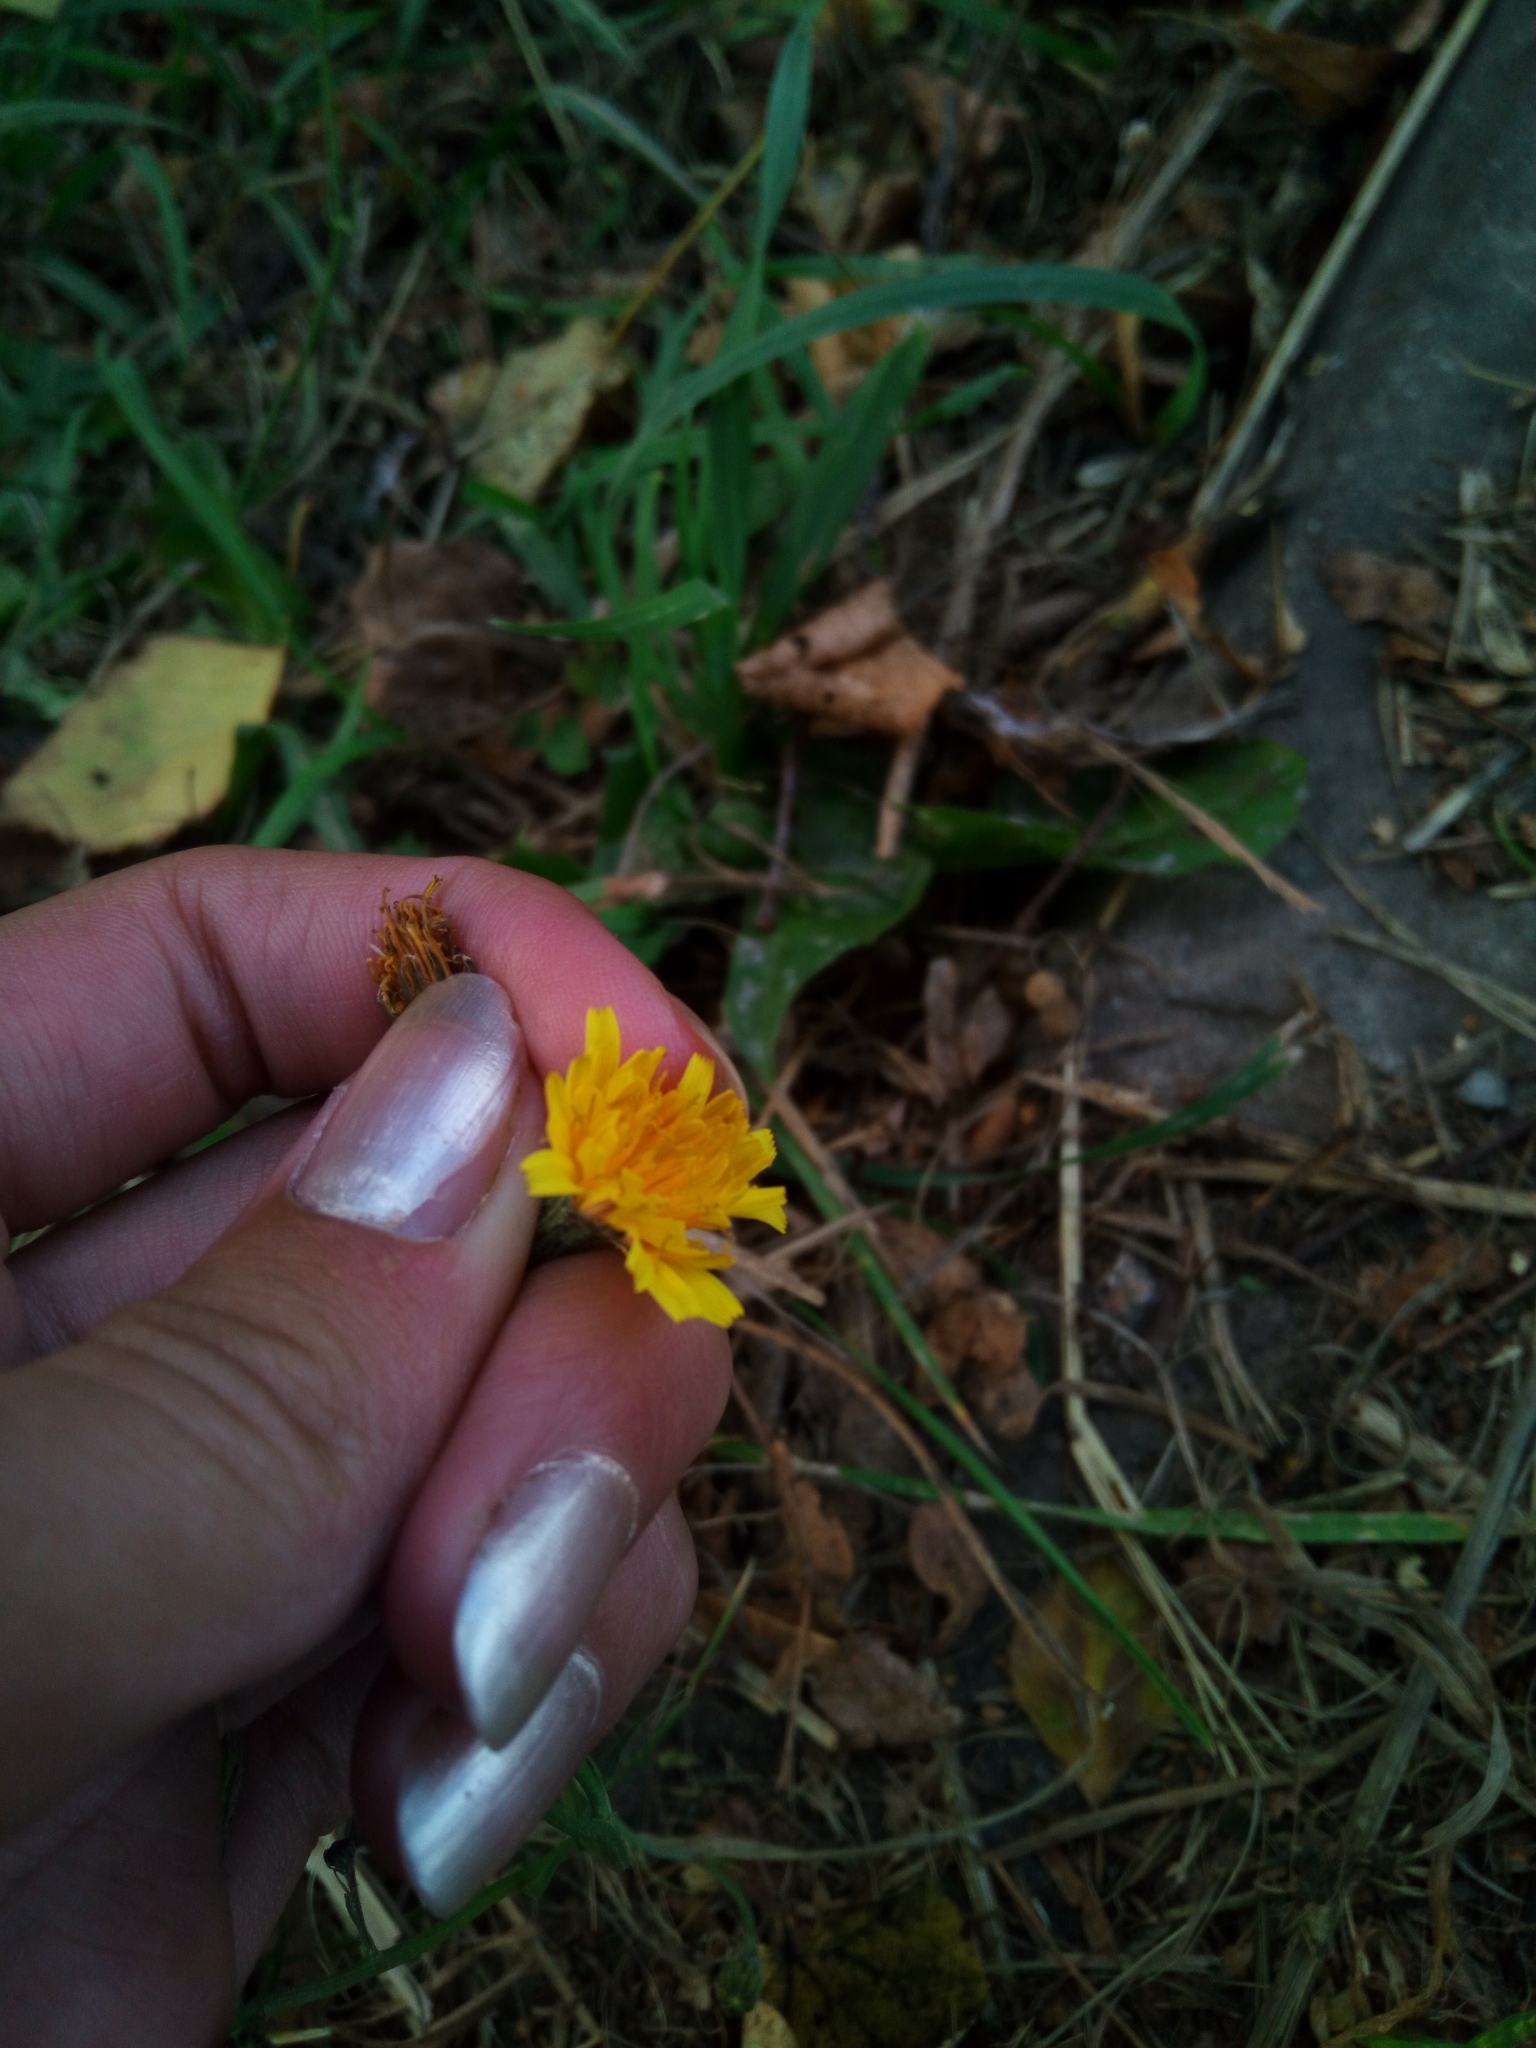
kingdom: Plantae
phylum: Tracheophyta
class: Magnoliopsida
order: Asterales
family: Asteraceae
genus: Scorzoneroides
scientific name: Scorzoneroides autumnalis
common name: Autumn hawkbit
